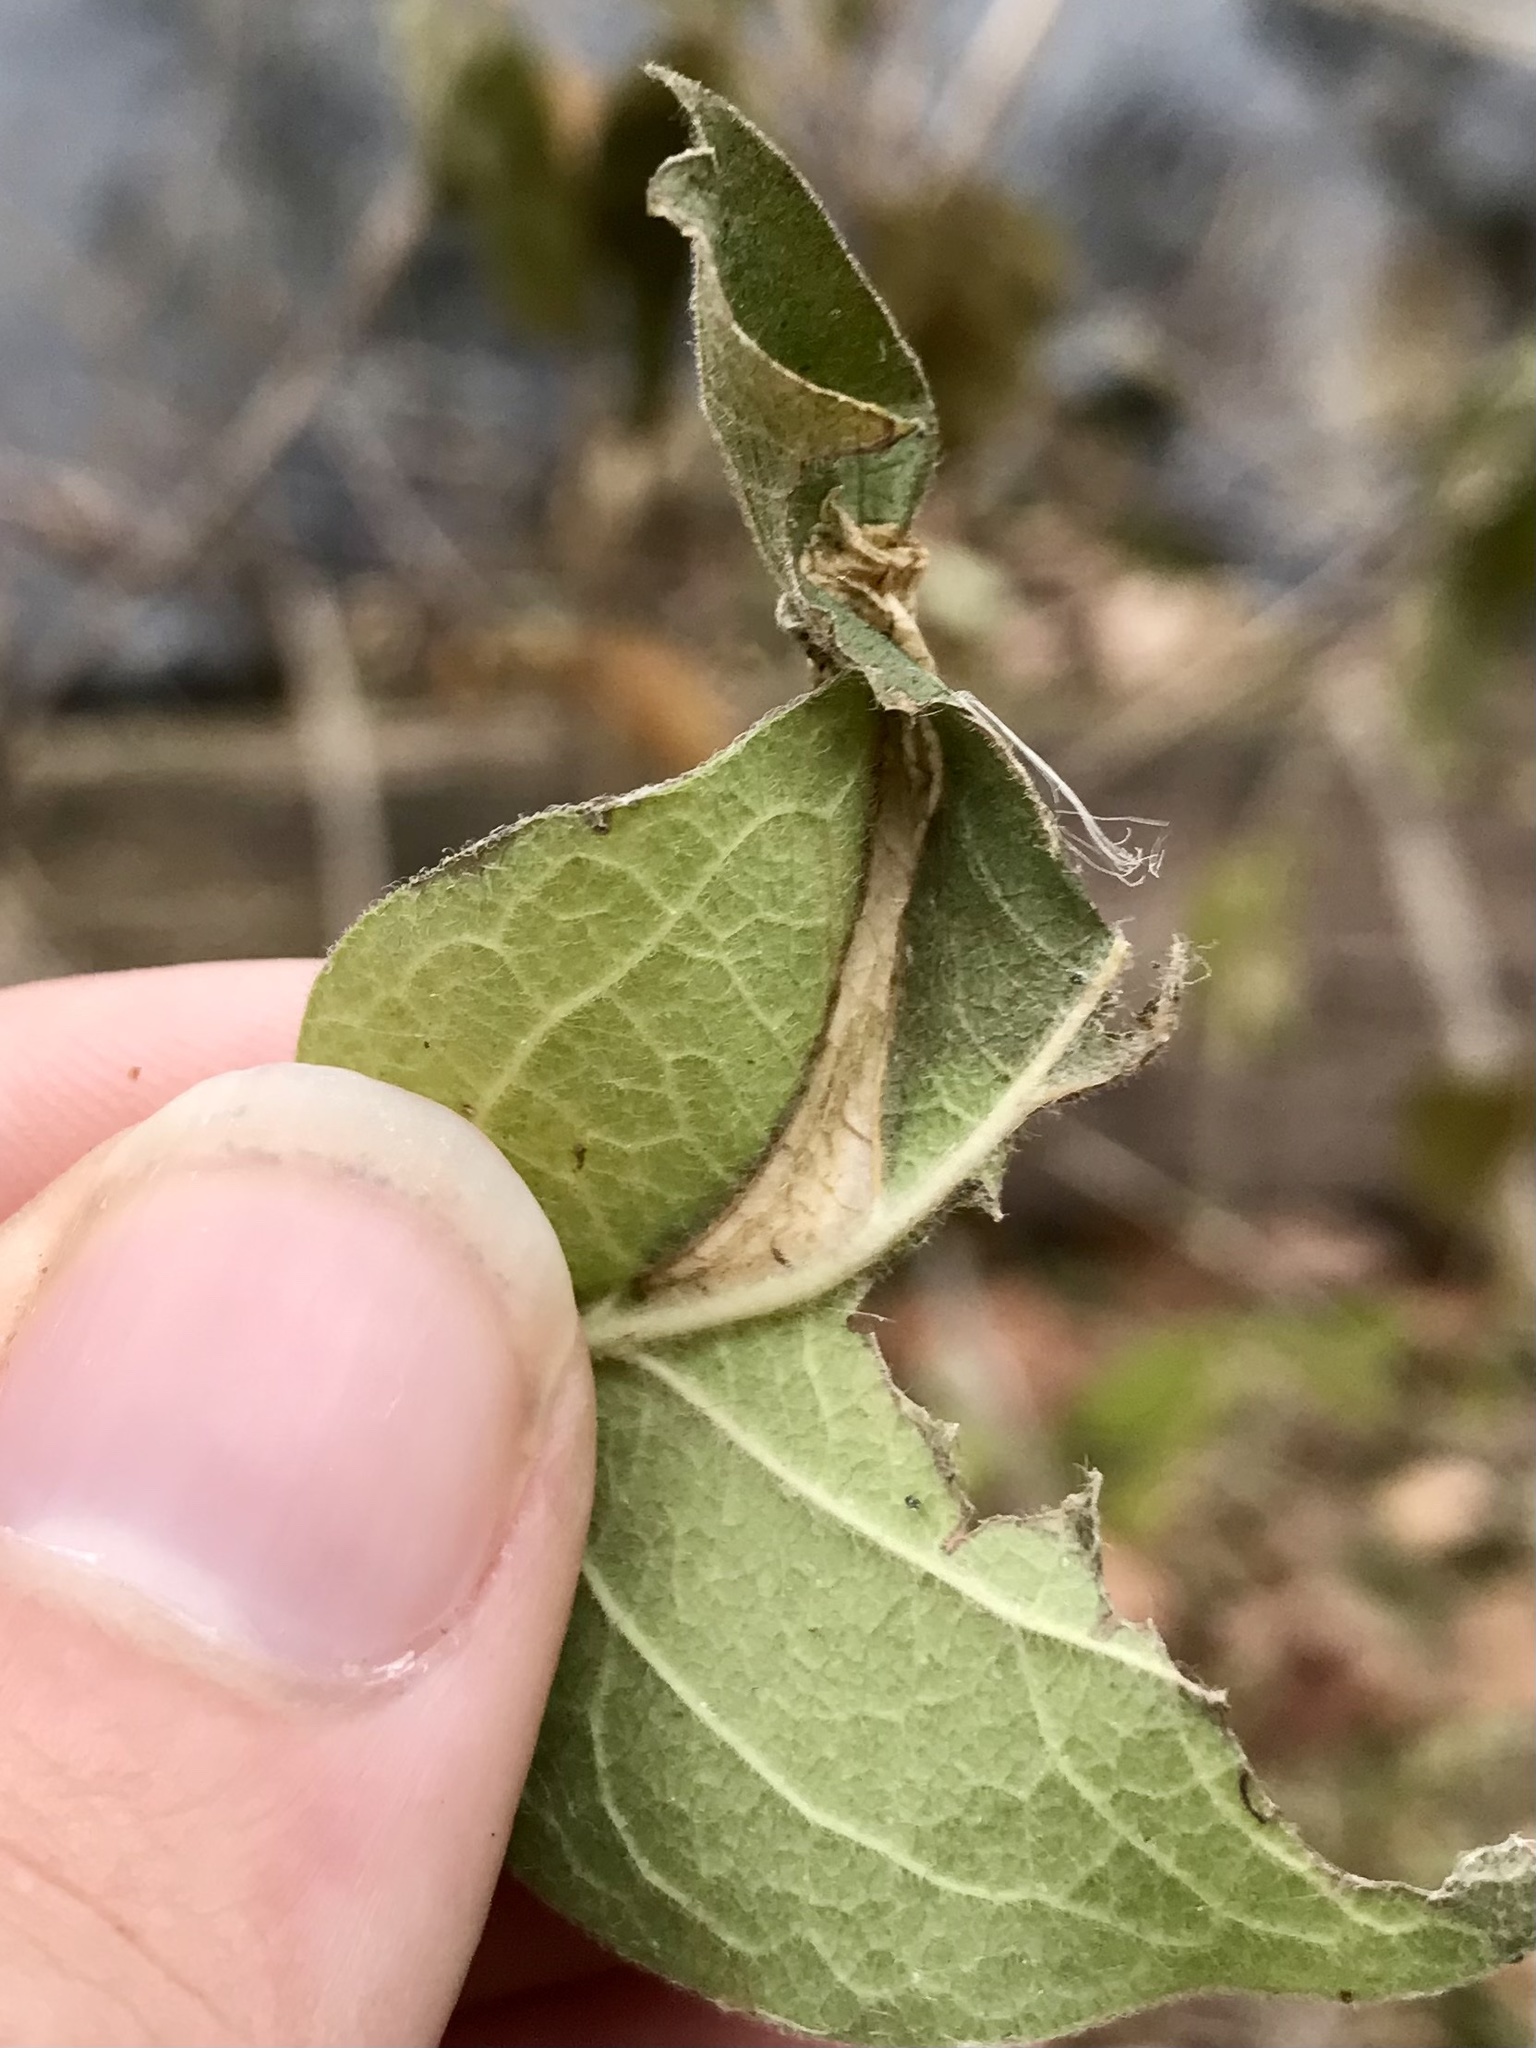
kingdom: Animalia
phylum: Arthropoda
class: Insecta
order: Lepidoptera
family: Gracillariidae
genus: Phyllonorycter
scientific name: Phyllonorycter
